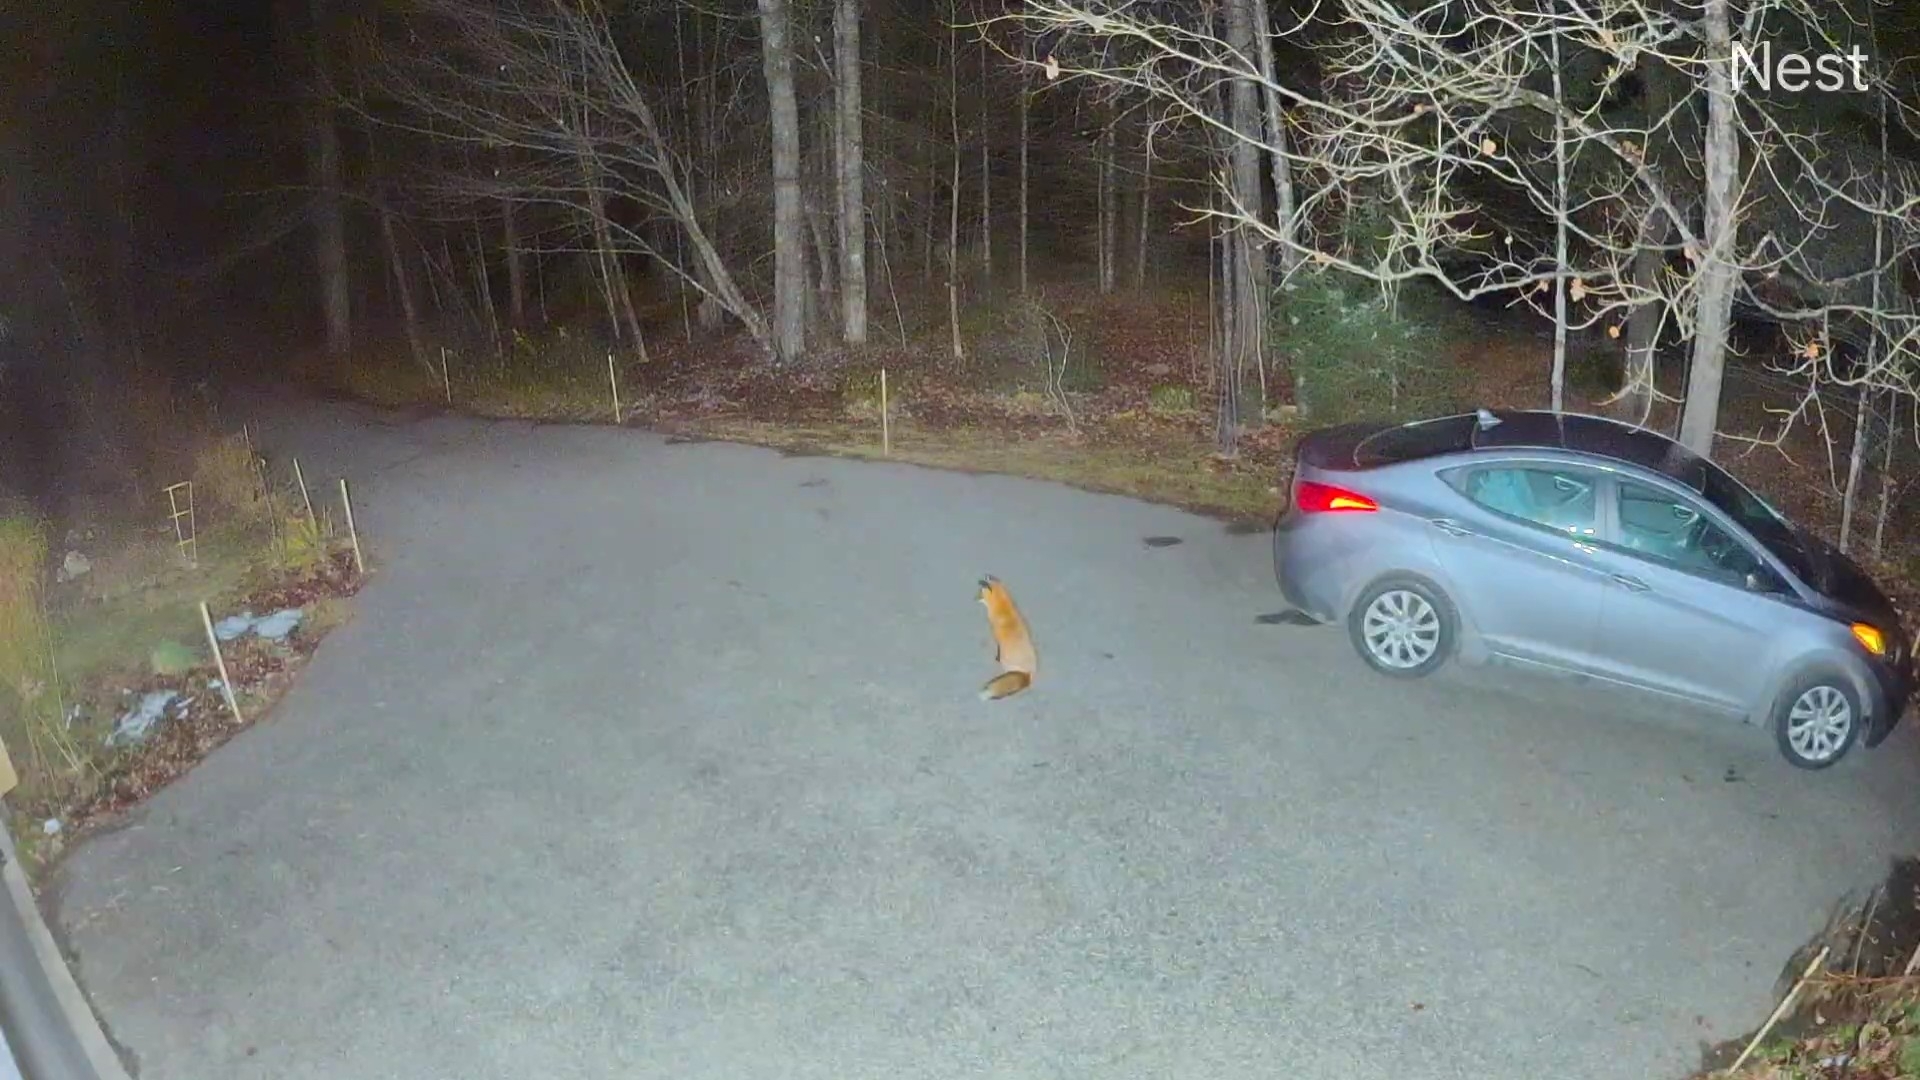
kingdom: Animalia
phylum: Chordata
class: Mammalia
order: Carnivora
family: Canidae
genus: Vulpes
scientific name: Vulpes vulpes
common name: Red fox
